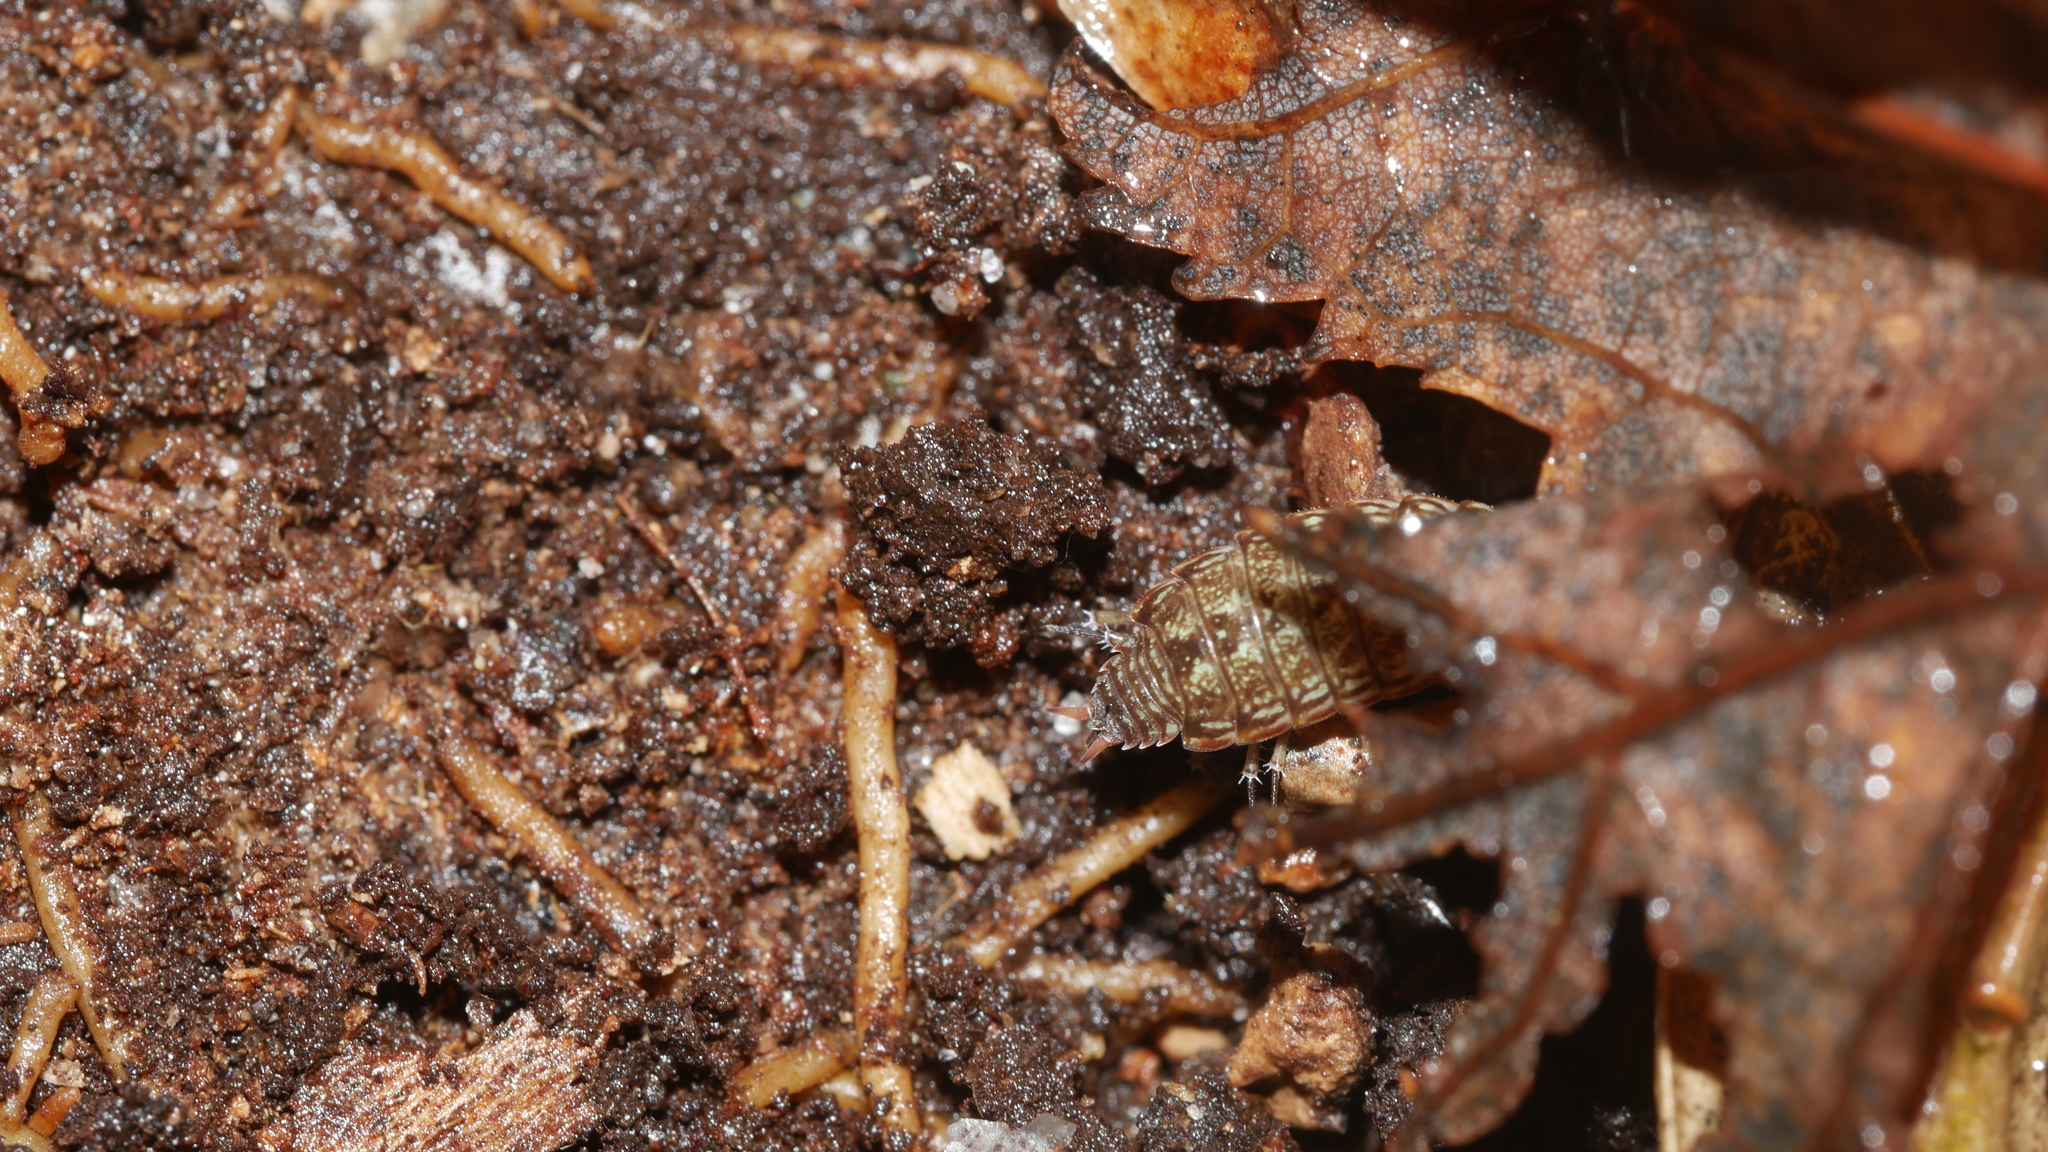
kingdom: Animalia
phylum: Arthropoda
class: Malacostraca
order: Isopoda
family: Philosciidae
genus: Philoscia
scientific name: Philoscia muscorum
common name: Common striped woodlouse
